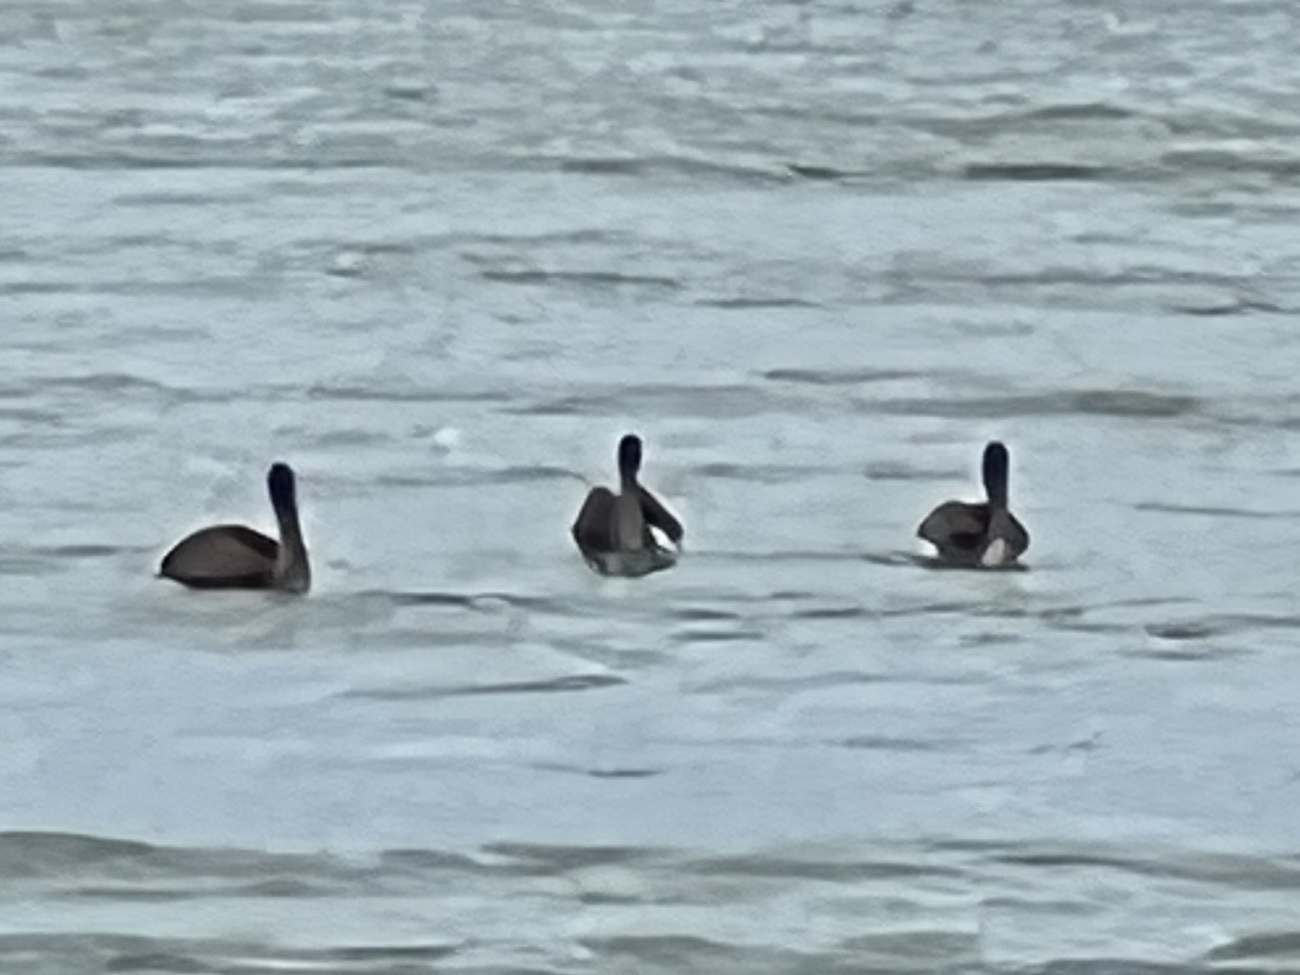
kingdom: Animalia
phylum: Chordata
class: Aves
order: Pelecaniformes
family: Pelecanidae
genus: Pelecanus
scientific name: Pelecanus occidentalis
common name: Brown pelican
